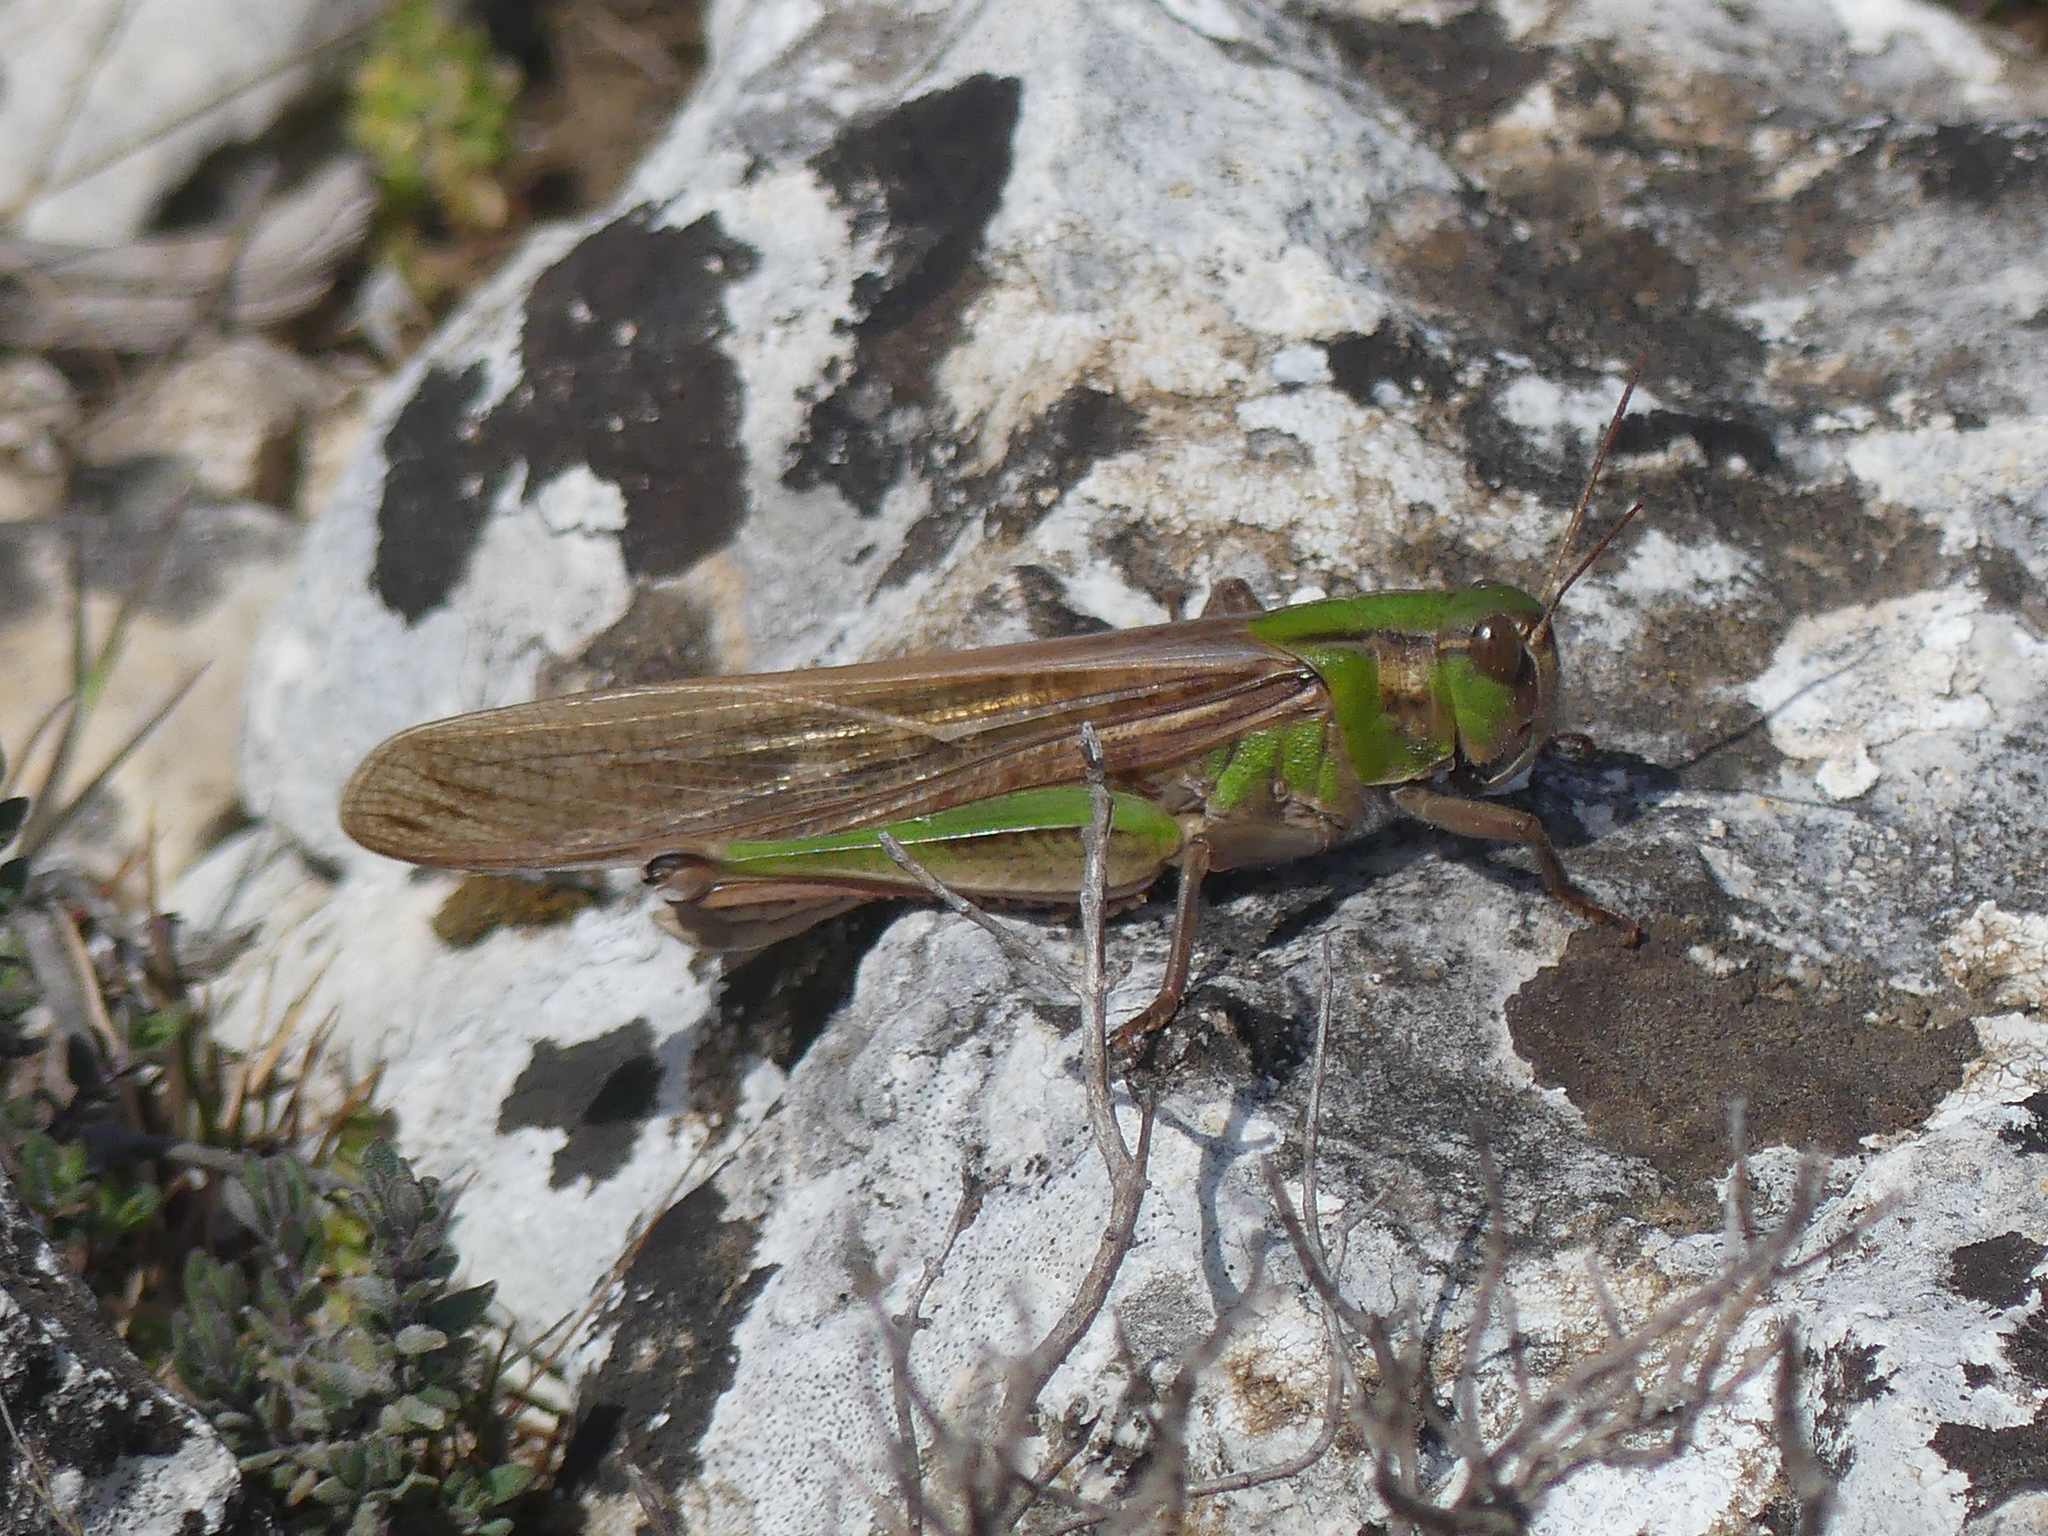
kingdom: Animalia
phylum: Arthropoda
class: Insecta
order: Orthoptera
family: Acrididae
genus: Locusta
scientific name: Locusta migratoria
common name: Migratory locust
